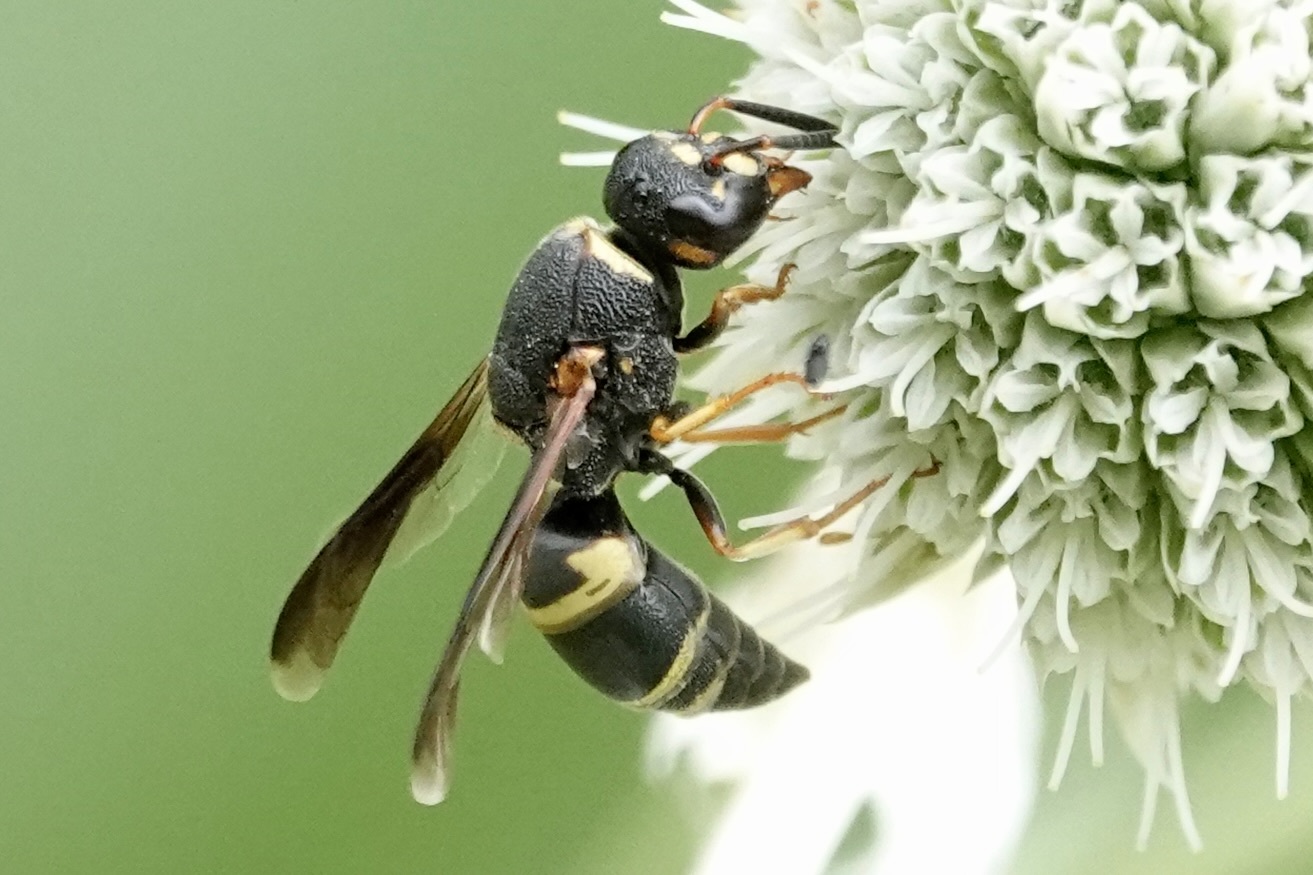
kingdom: Animalia
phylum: Arthropoda
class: Insecta
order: Hymenoptera
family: Eumenidae
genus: Euodynerus
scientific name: Euodynerus hidalgo
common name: Wasp
